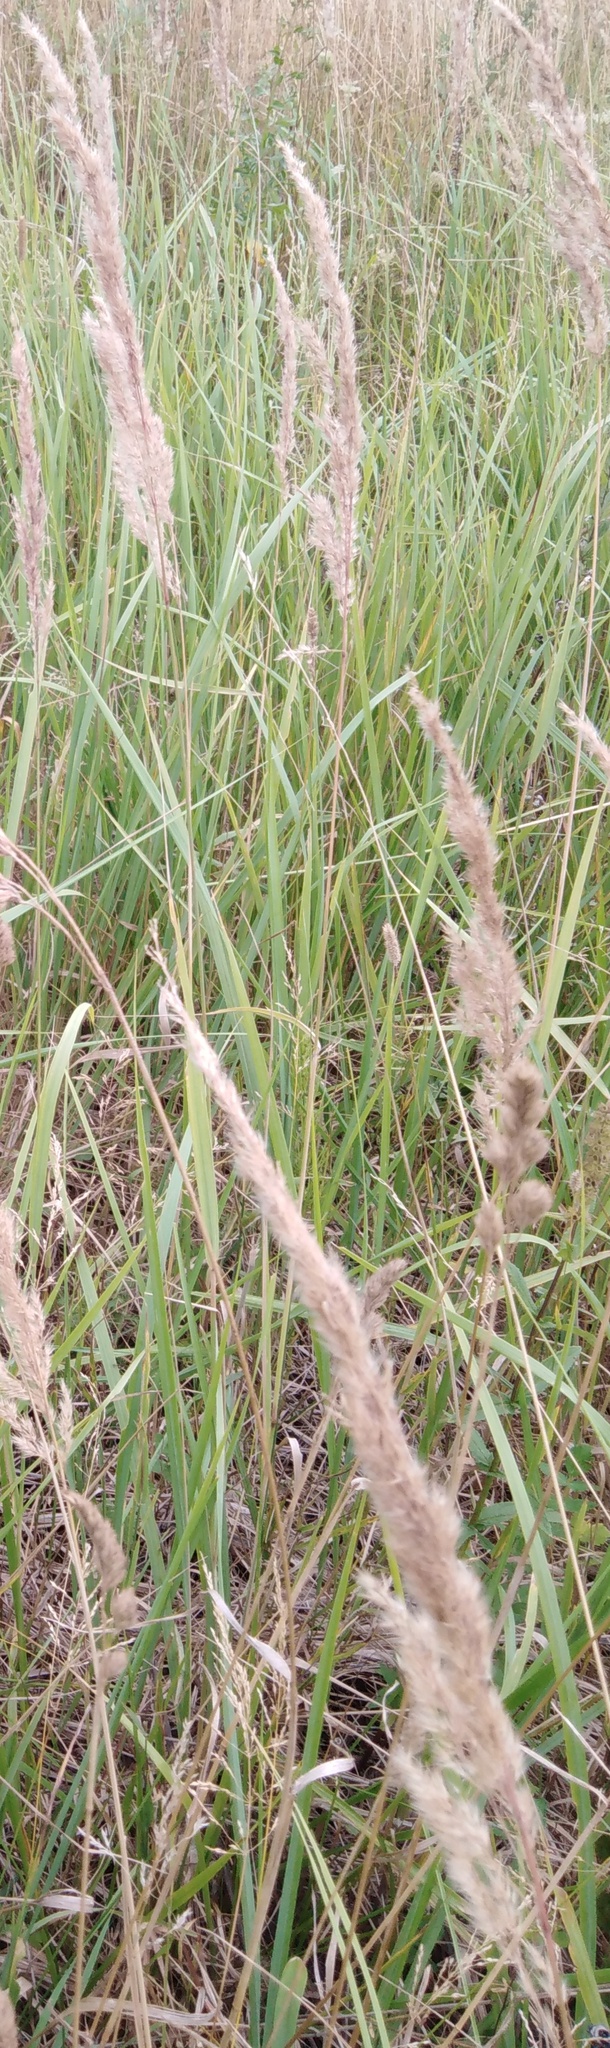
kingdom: Plantae
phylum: Tracheophyta
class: Liliopsida
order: Poales
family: Poaceae
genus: Calamagrostis
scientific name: Calamagrostis epigejos
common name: Wood small-reed
